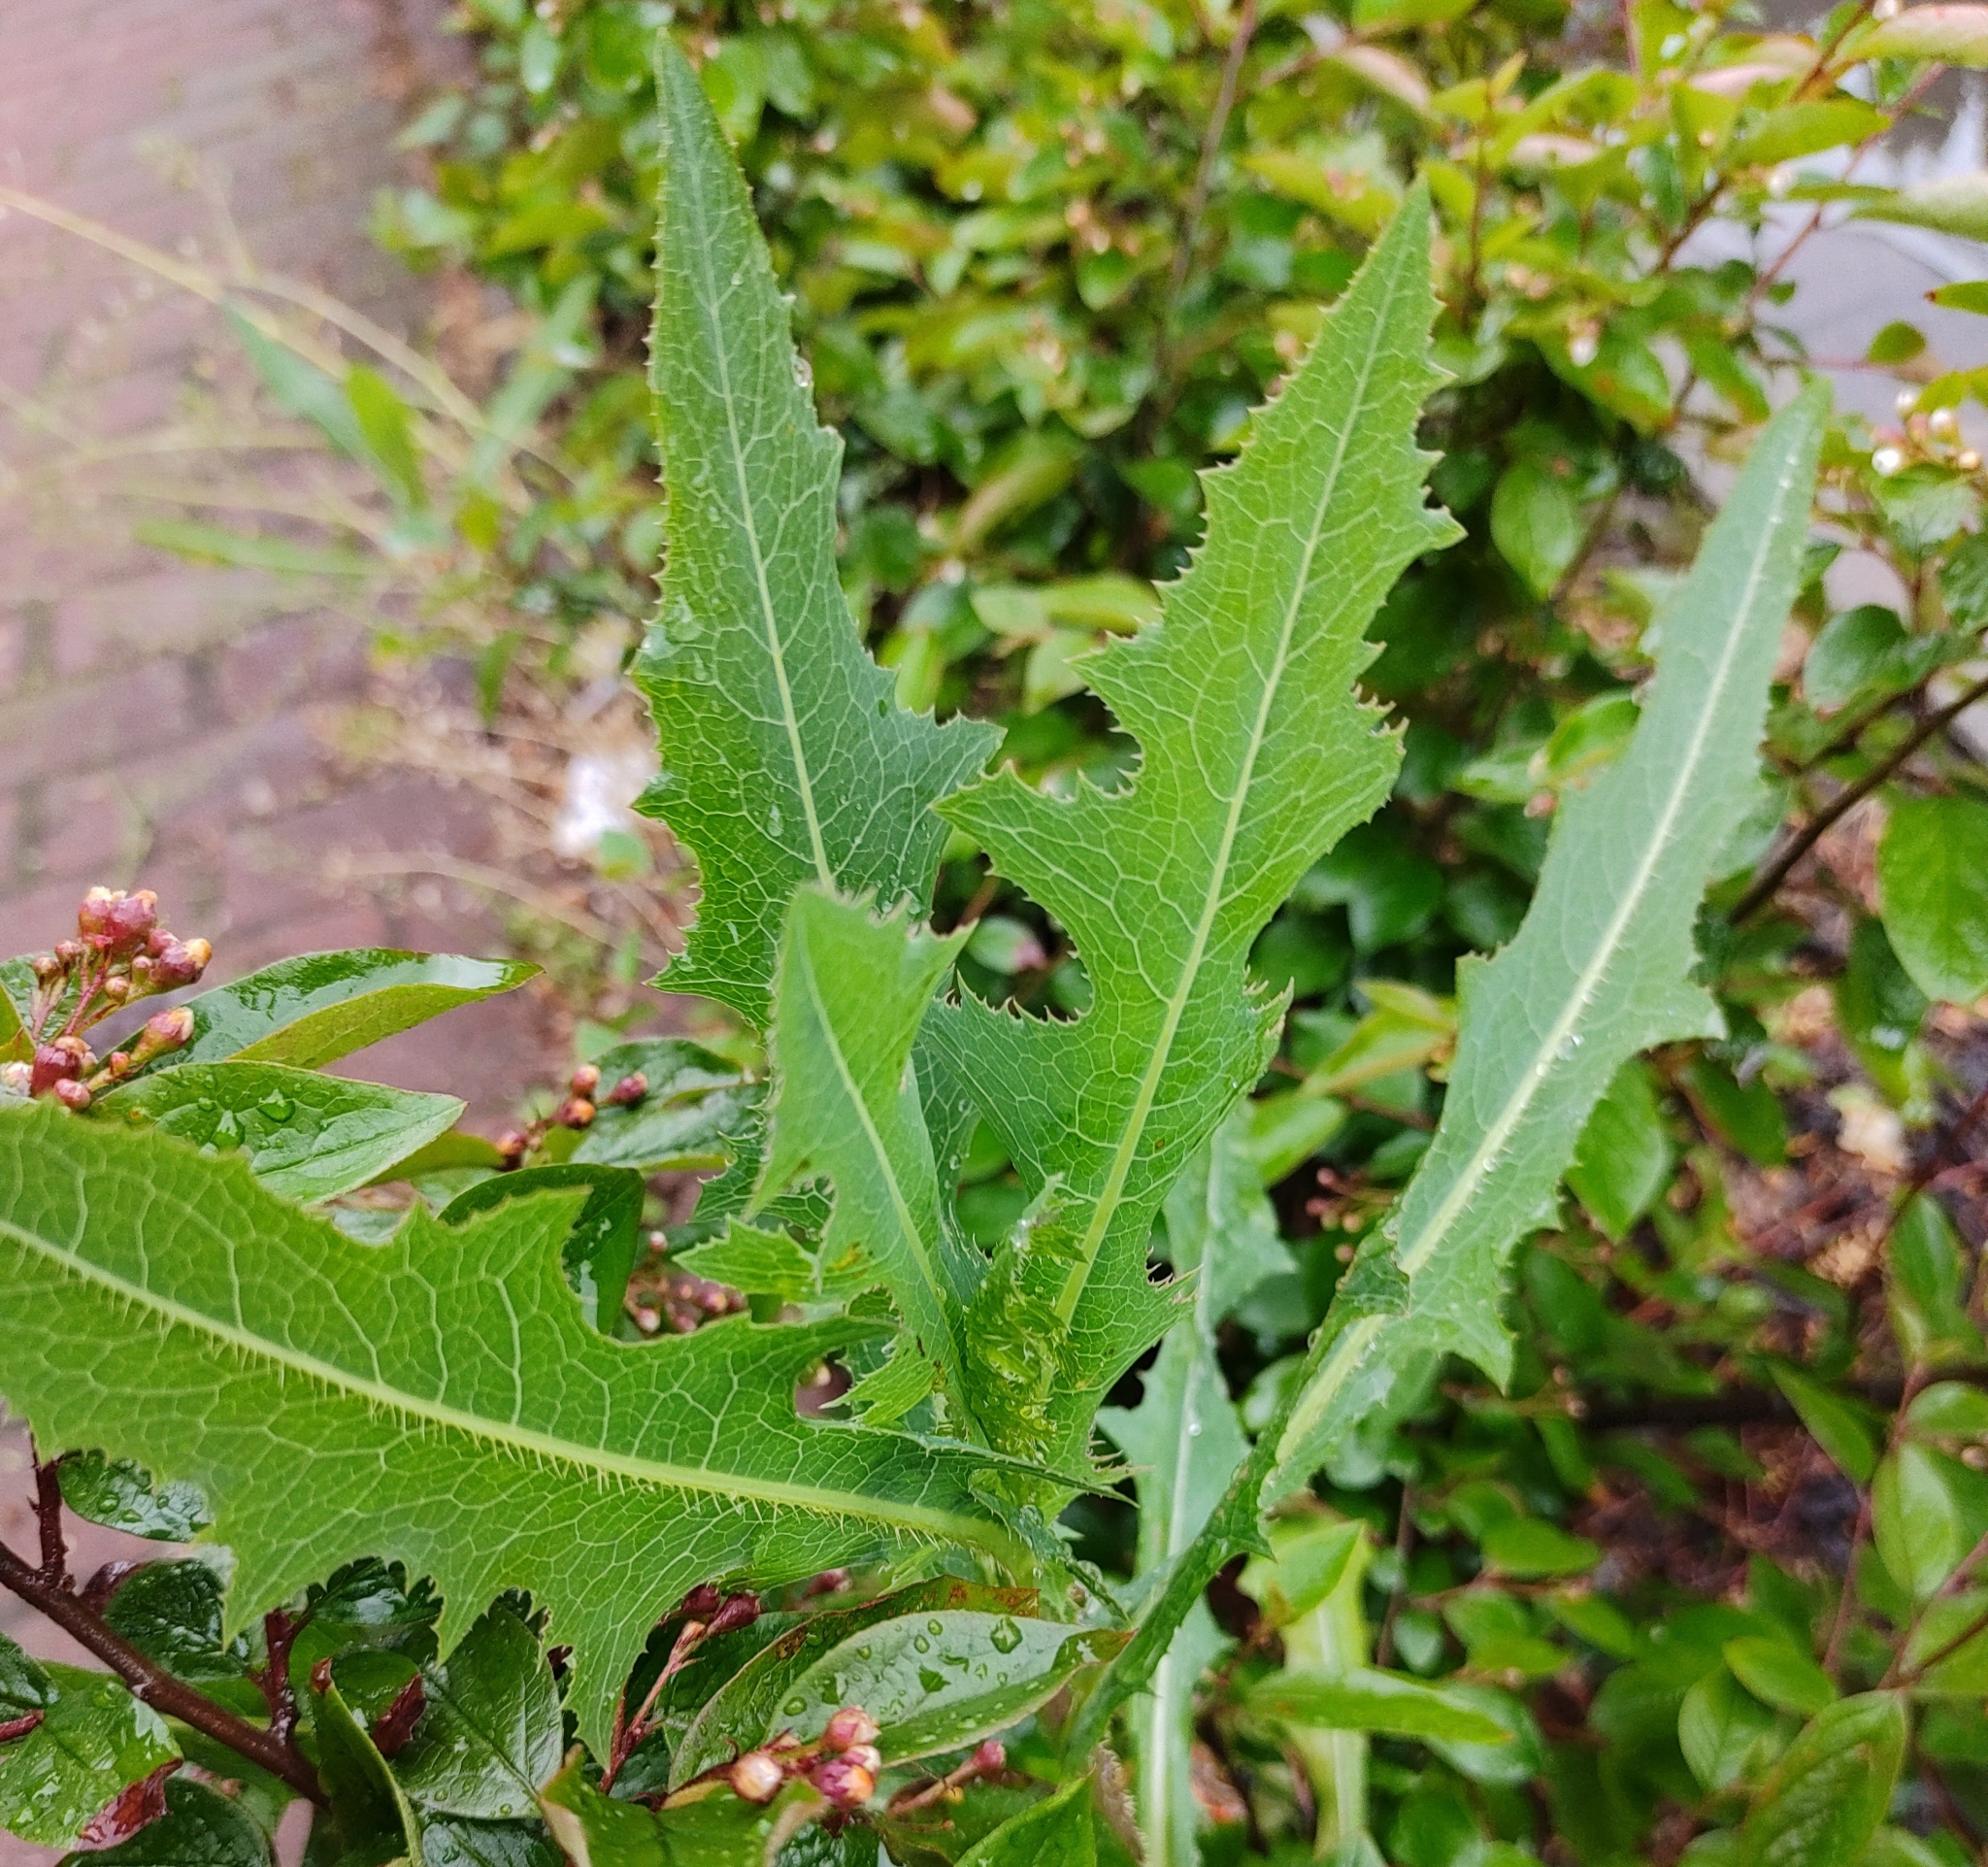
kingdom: Plantae
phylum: Tracheophyta
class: Magnoliopsida
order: Asterales
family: Asteraceae
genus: Lactuca
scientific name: Lactuca serriola
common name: Prickly lettuce
